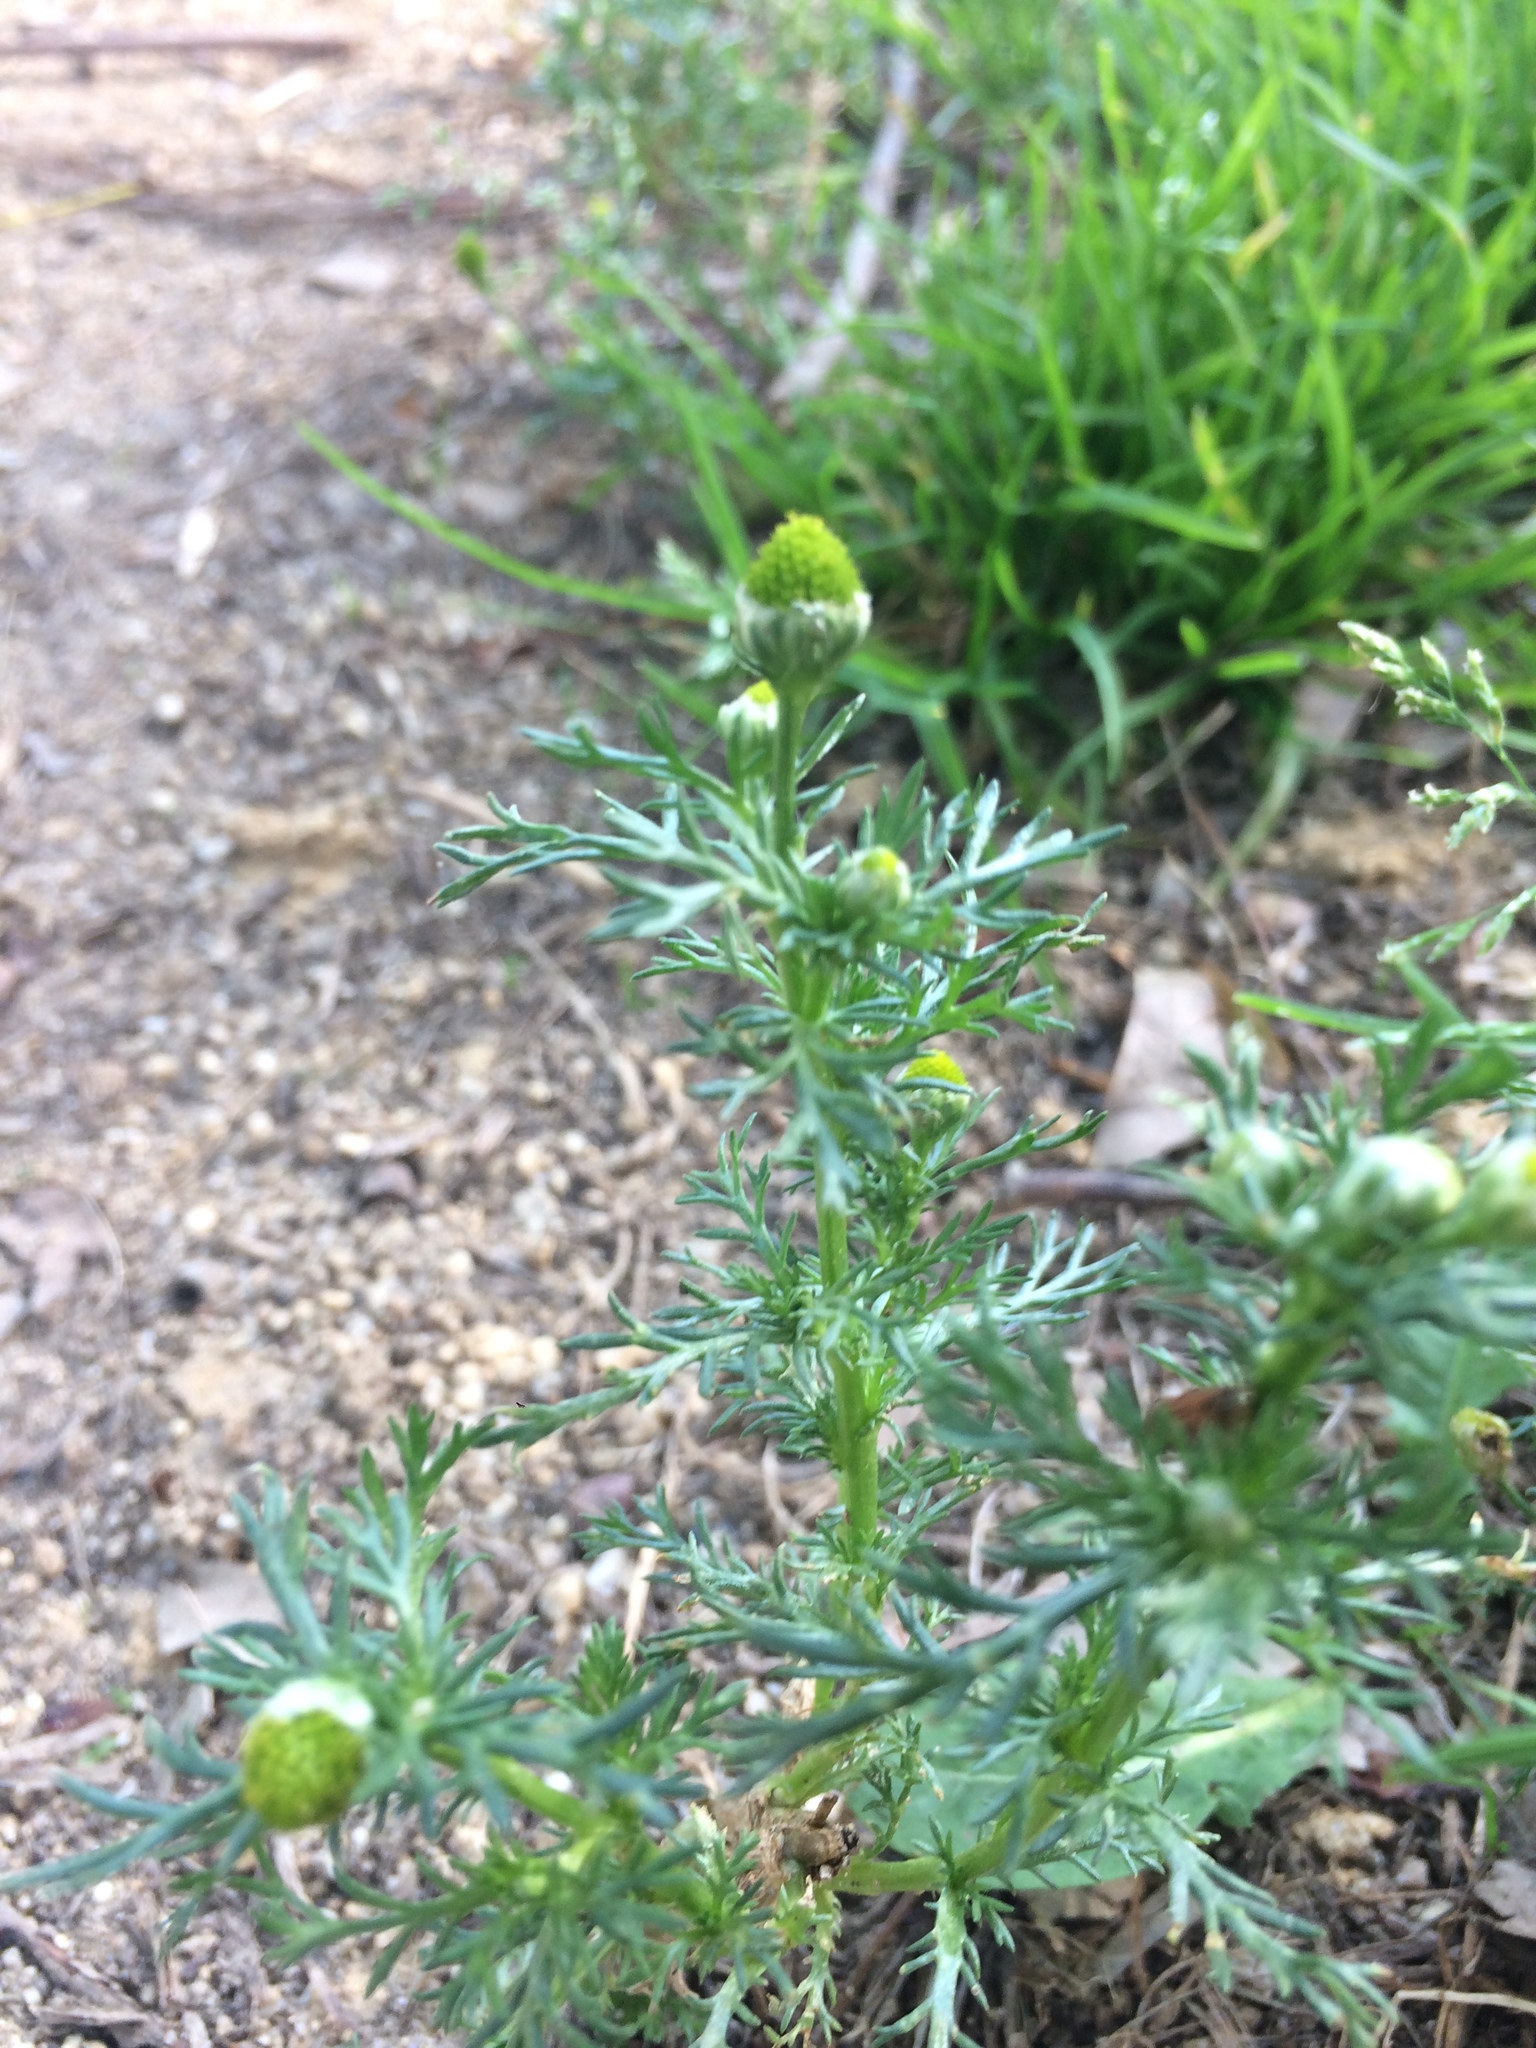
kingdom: Plantae
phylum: Tracheophyta
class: Magnoliopsida
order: Asterales
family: Asteraceae
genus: Matricaria
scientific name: Matricaria discoidea
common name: Disc mayweed
